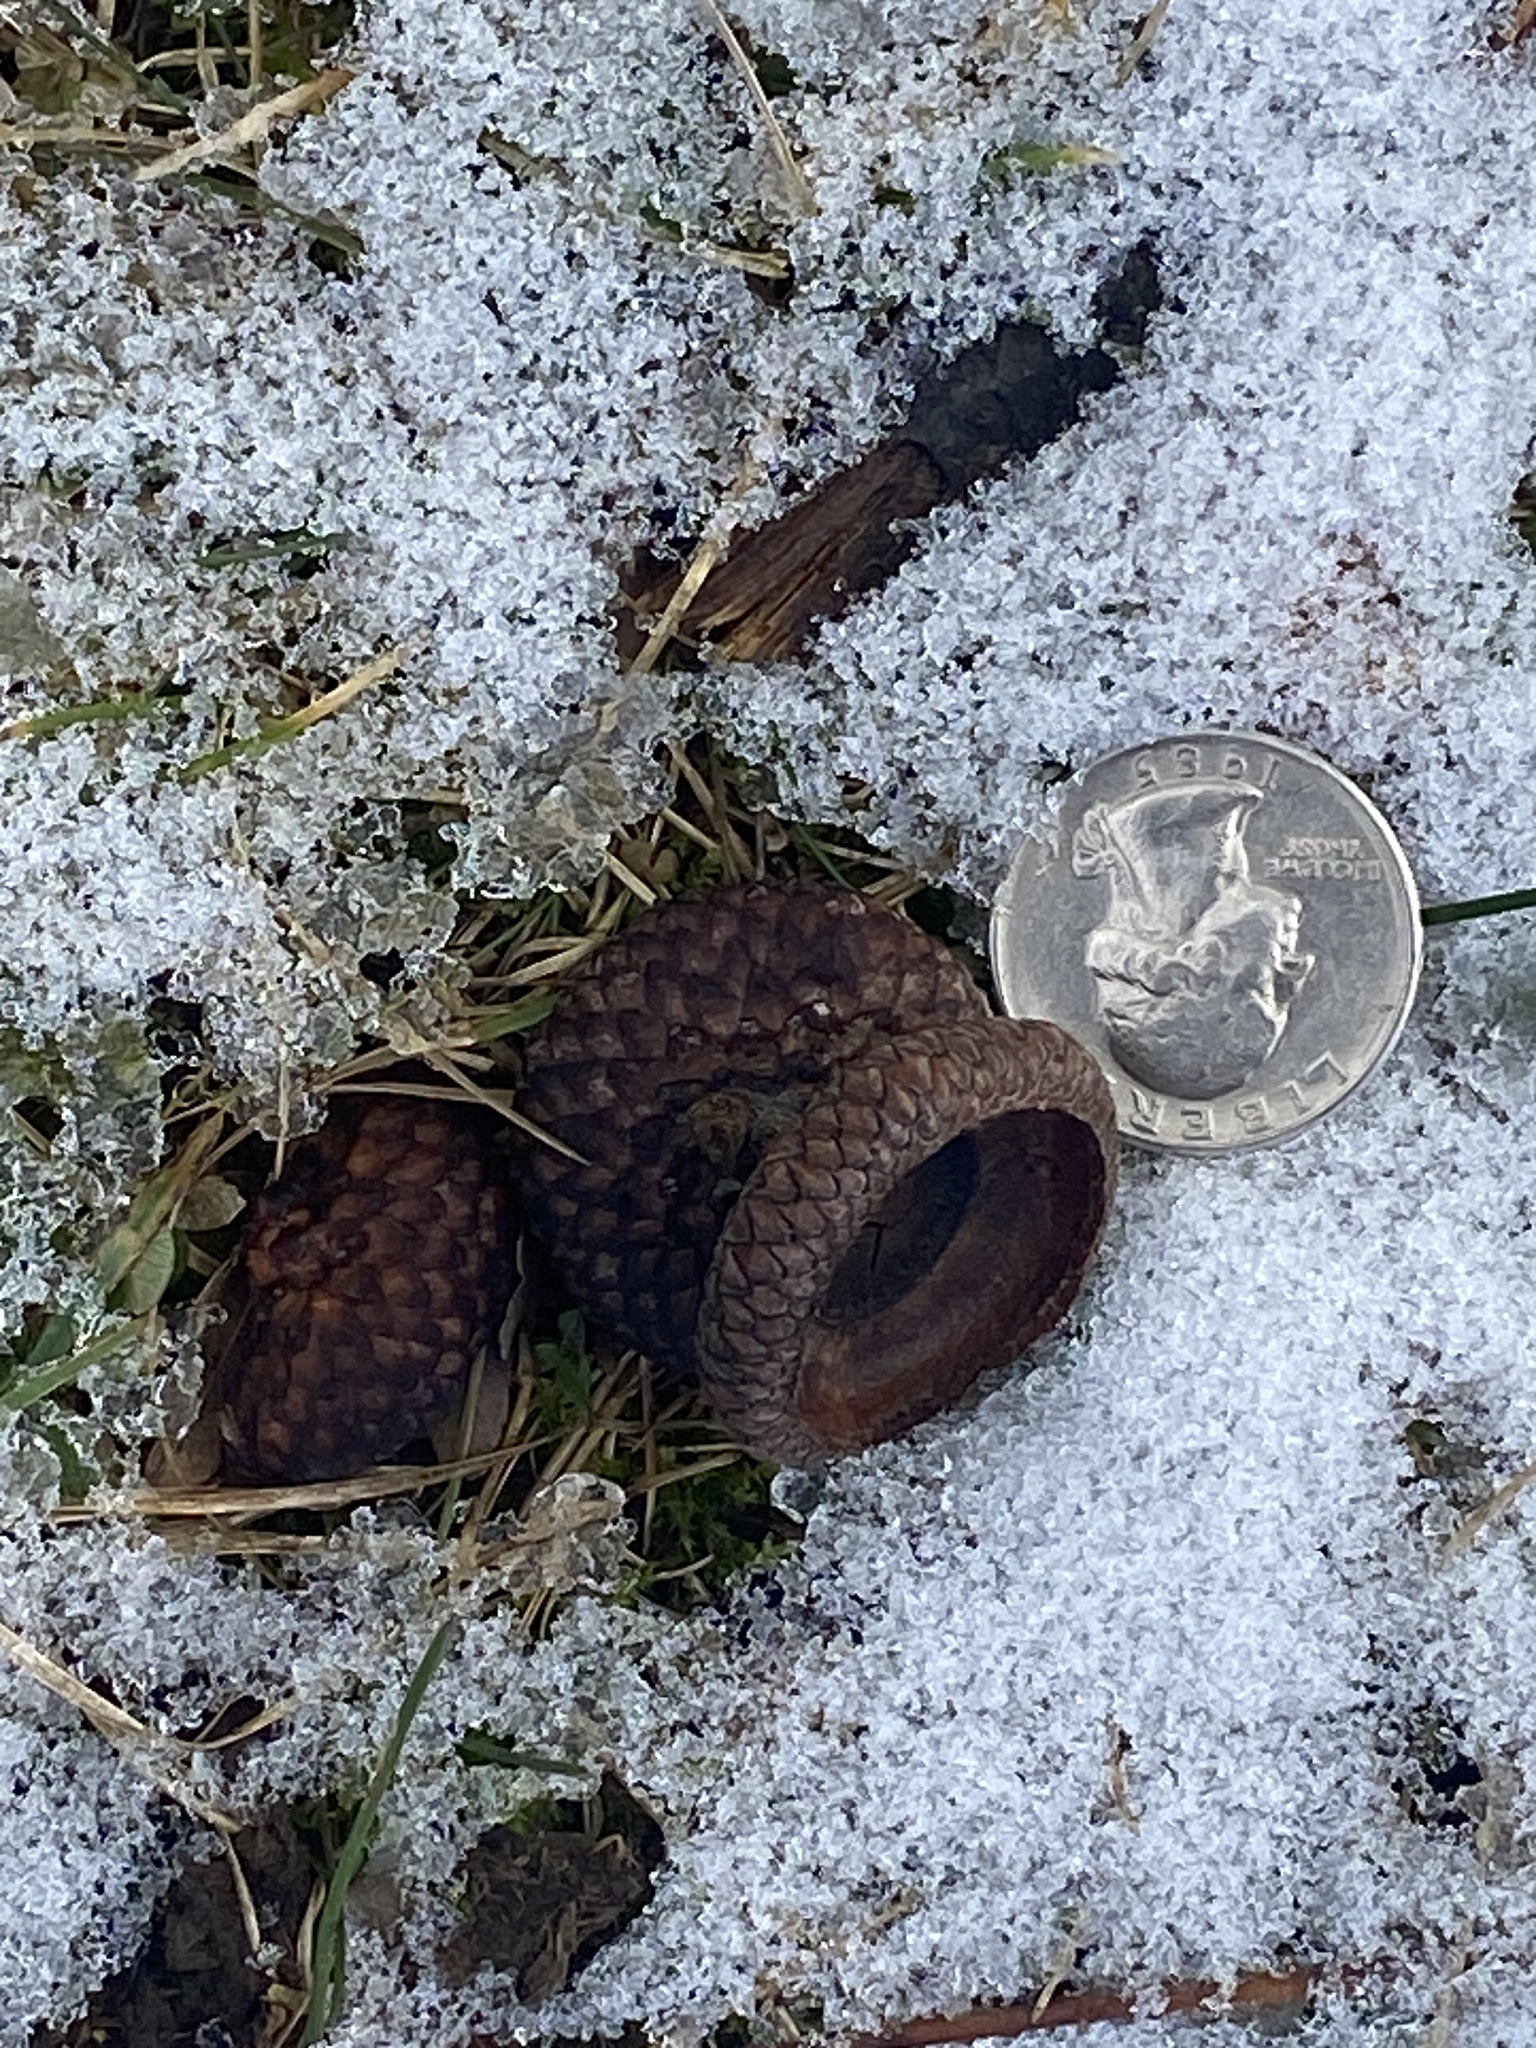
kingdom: Plantae
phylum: Tracheophyta
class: Magnoliopsida
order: Fagales
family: Fagaceae
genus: Quercus
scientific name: Quercus rubra
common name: Red oak
